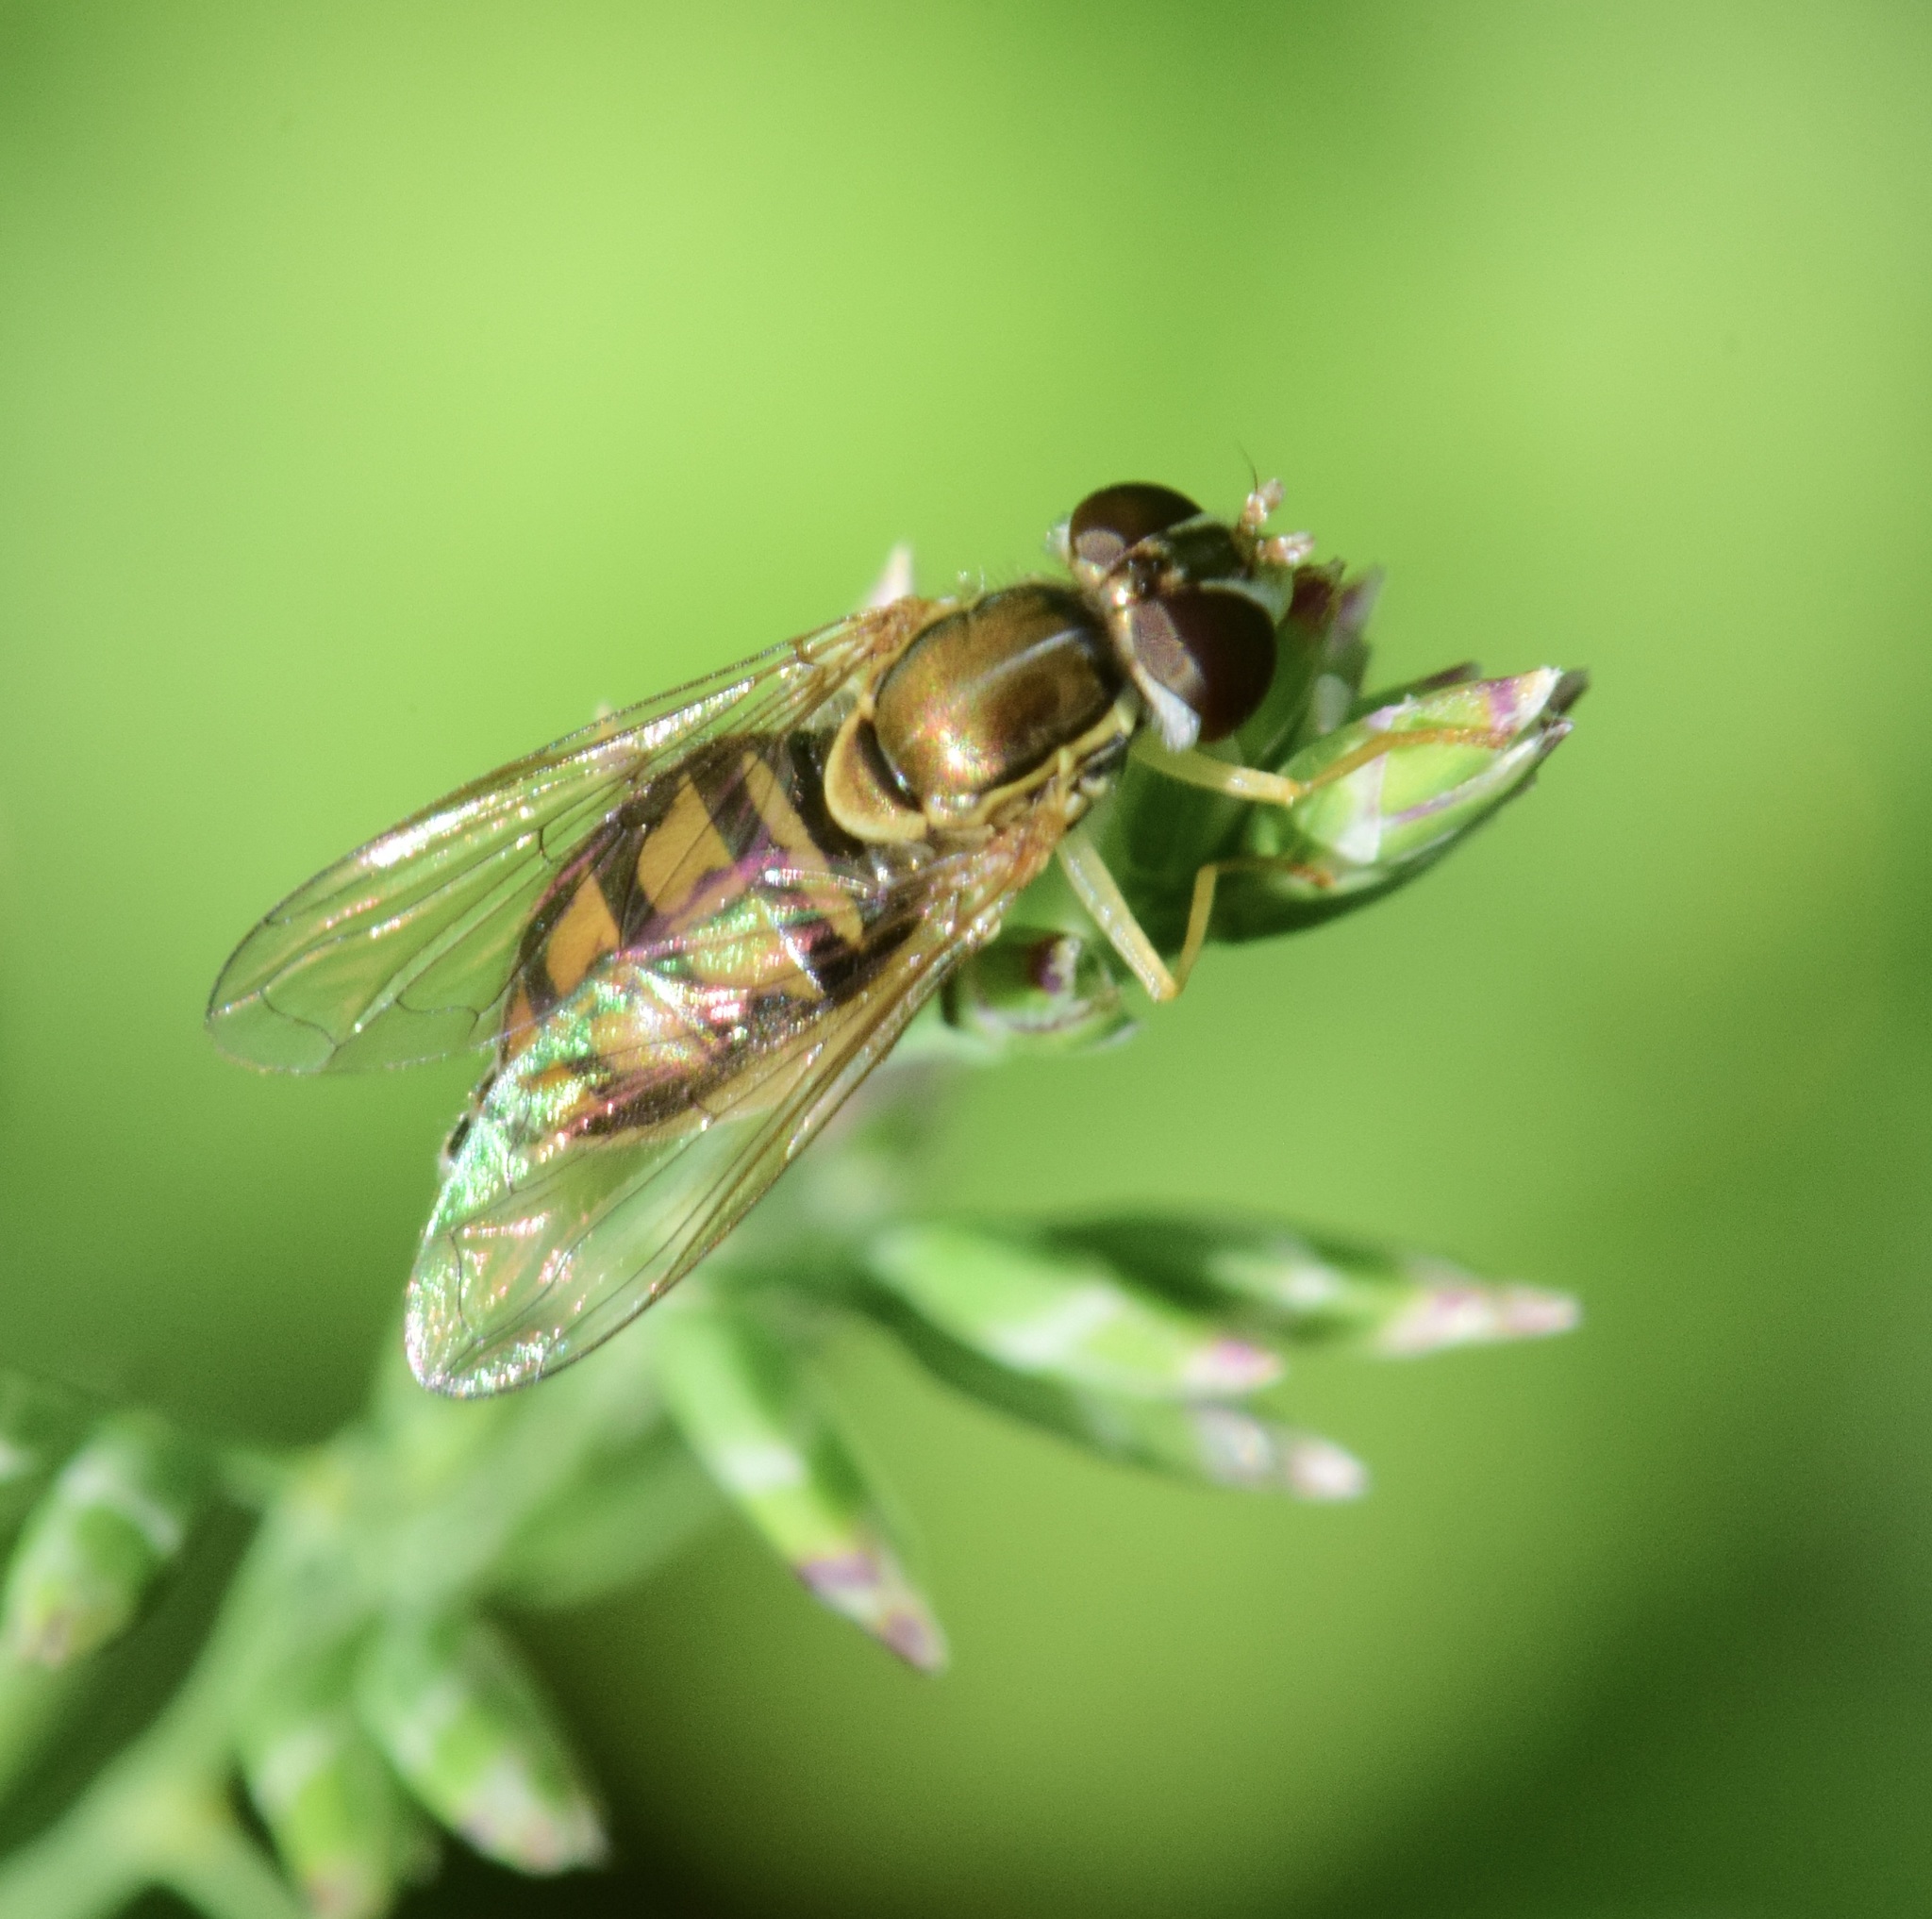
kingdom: Animalia
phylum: Arthropoda
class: Insecta
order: Diptera
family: Syrphidae
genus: Toxomerus
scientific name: Toxomerus marginatus
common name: Syrphid fly
